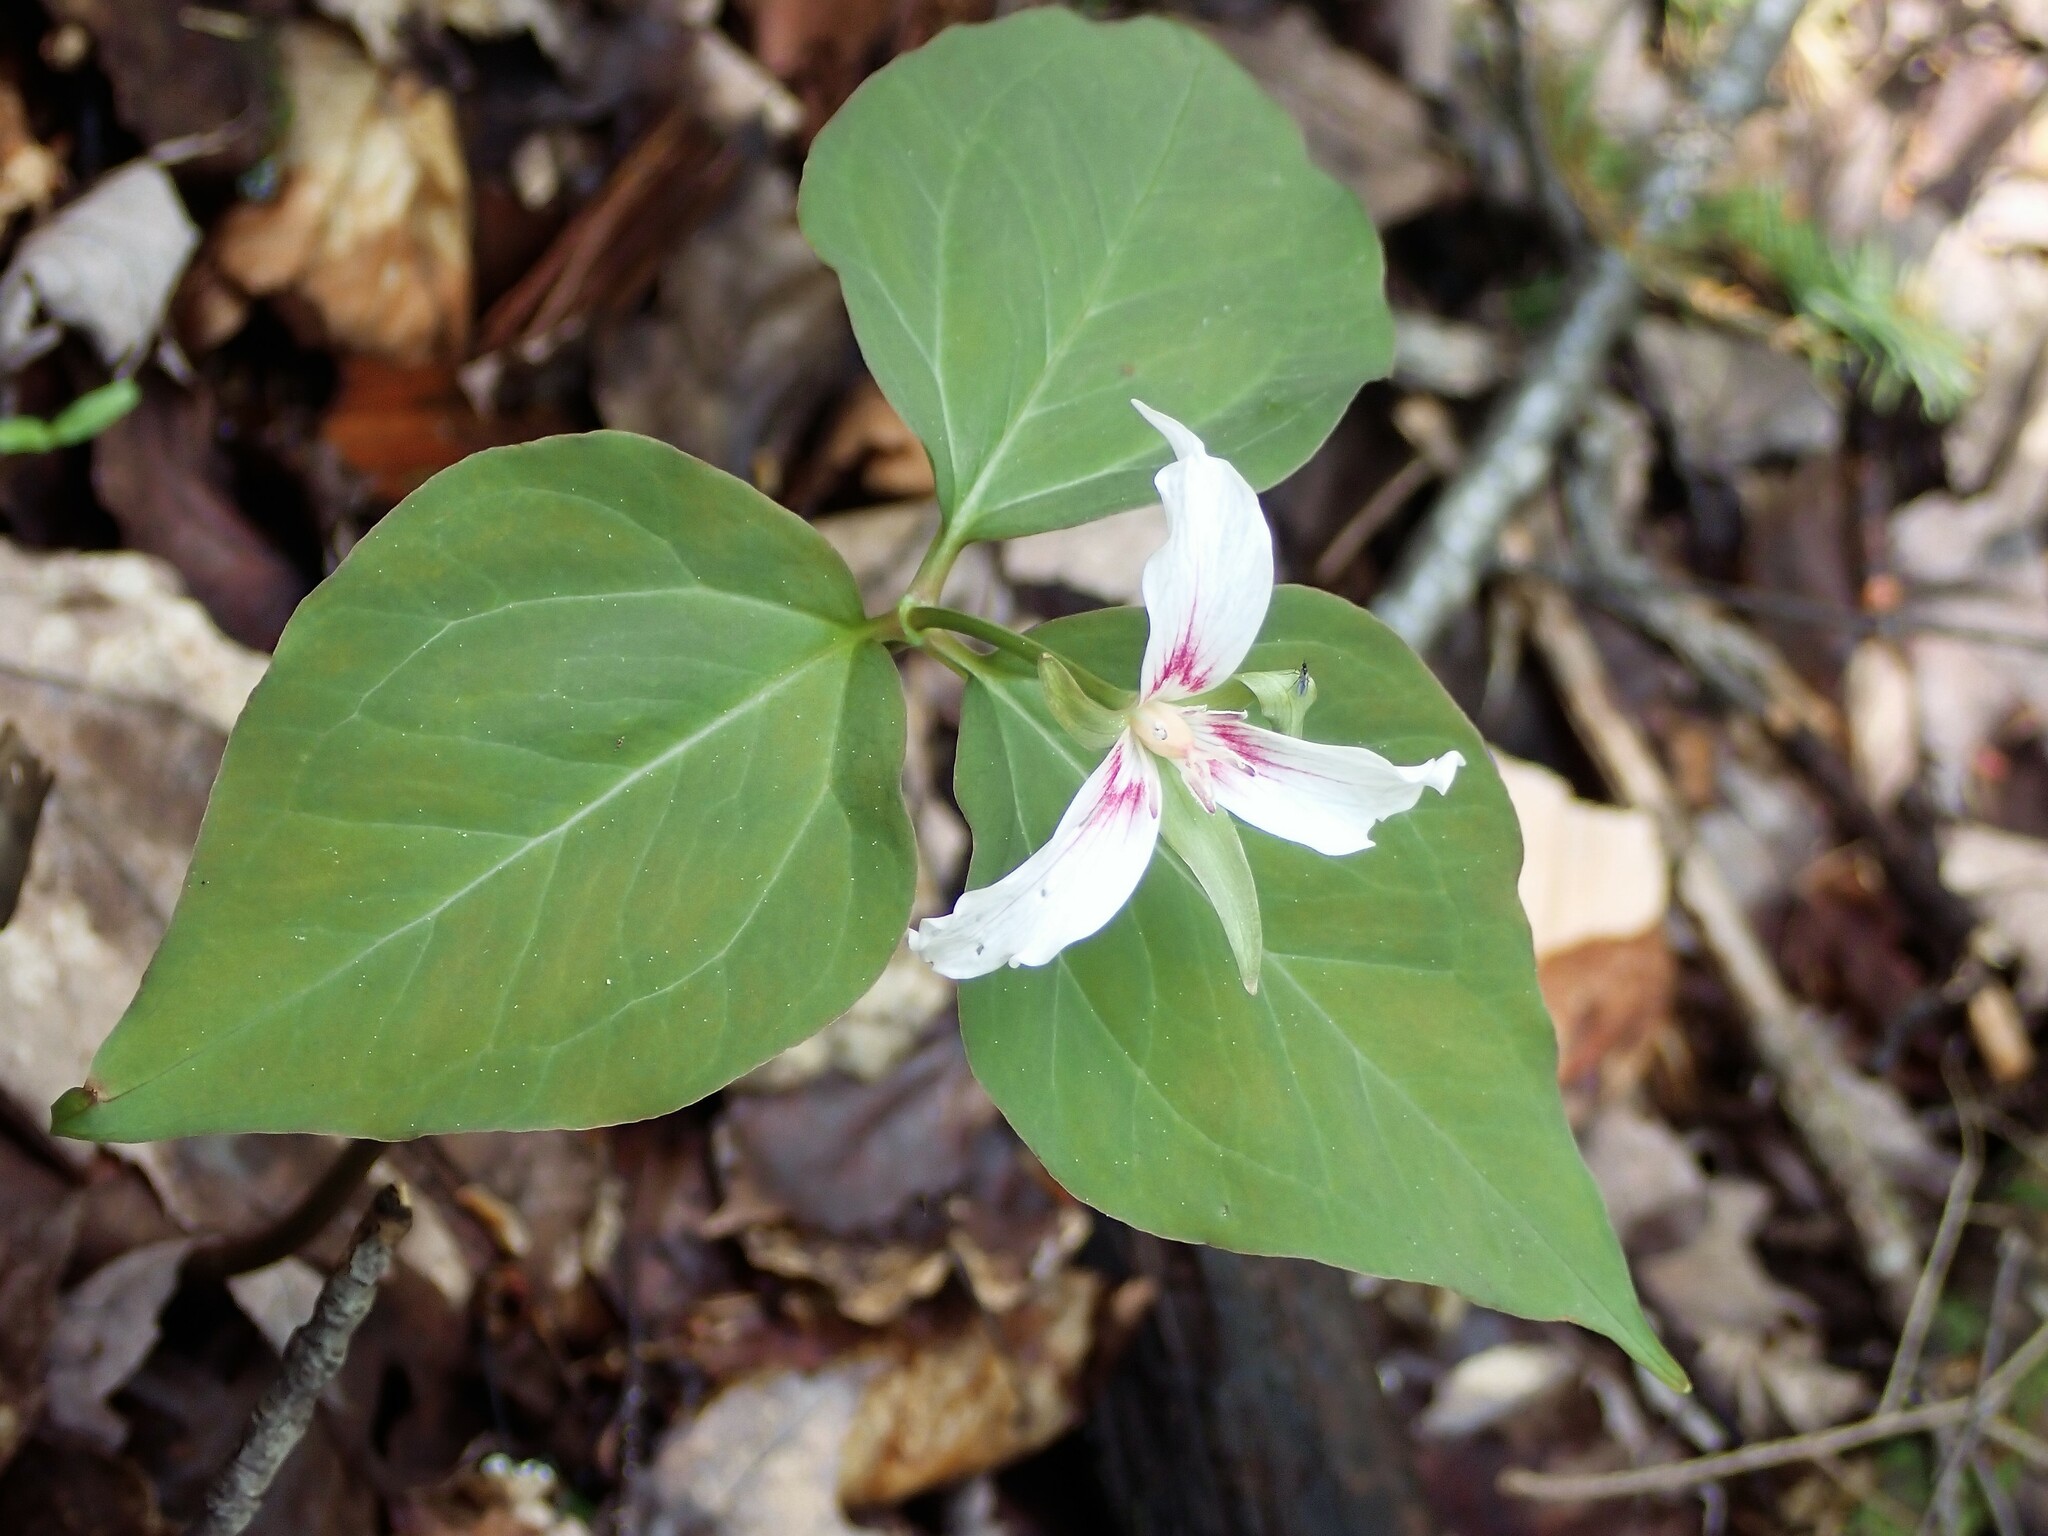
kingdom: Plantae
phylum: Tracheophyta
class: Liliopsida
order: Liliales
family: Melanthiaceae
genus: Trillium
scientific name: Trillium undulatum
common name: Paint trillium
